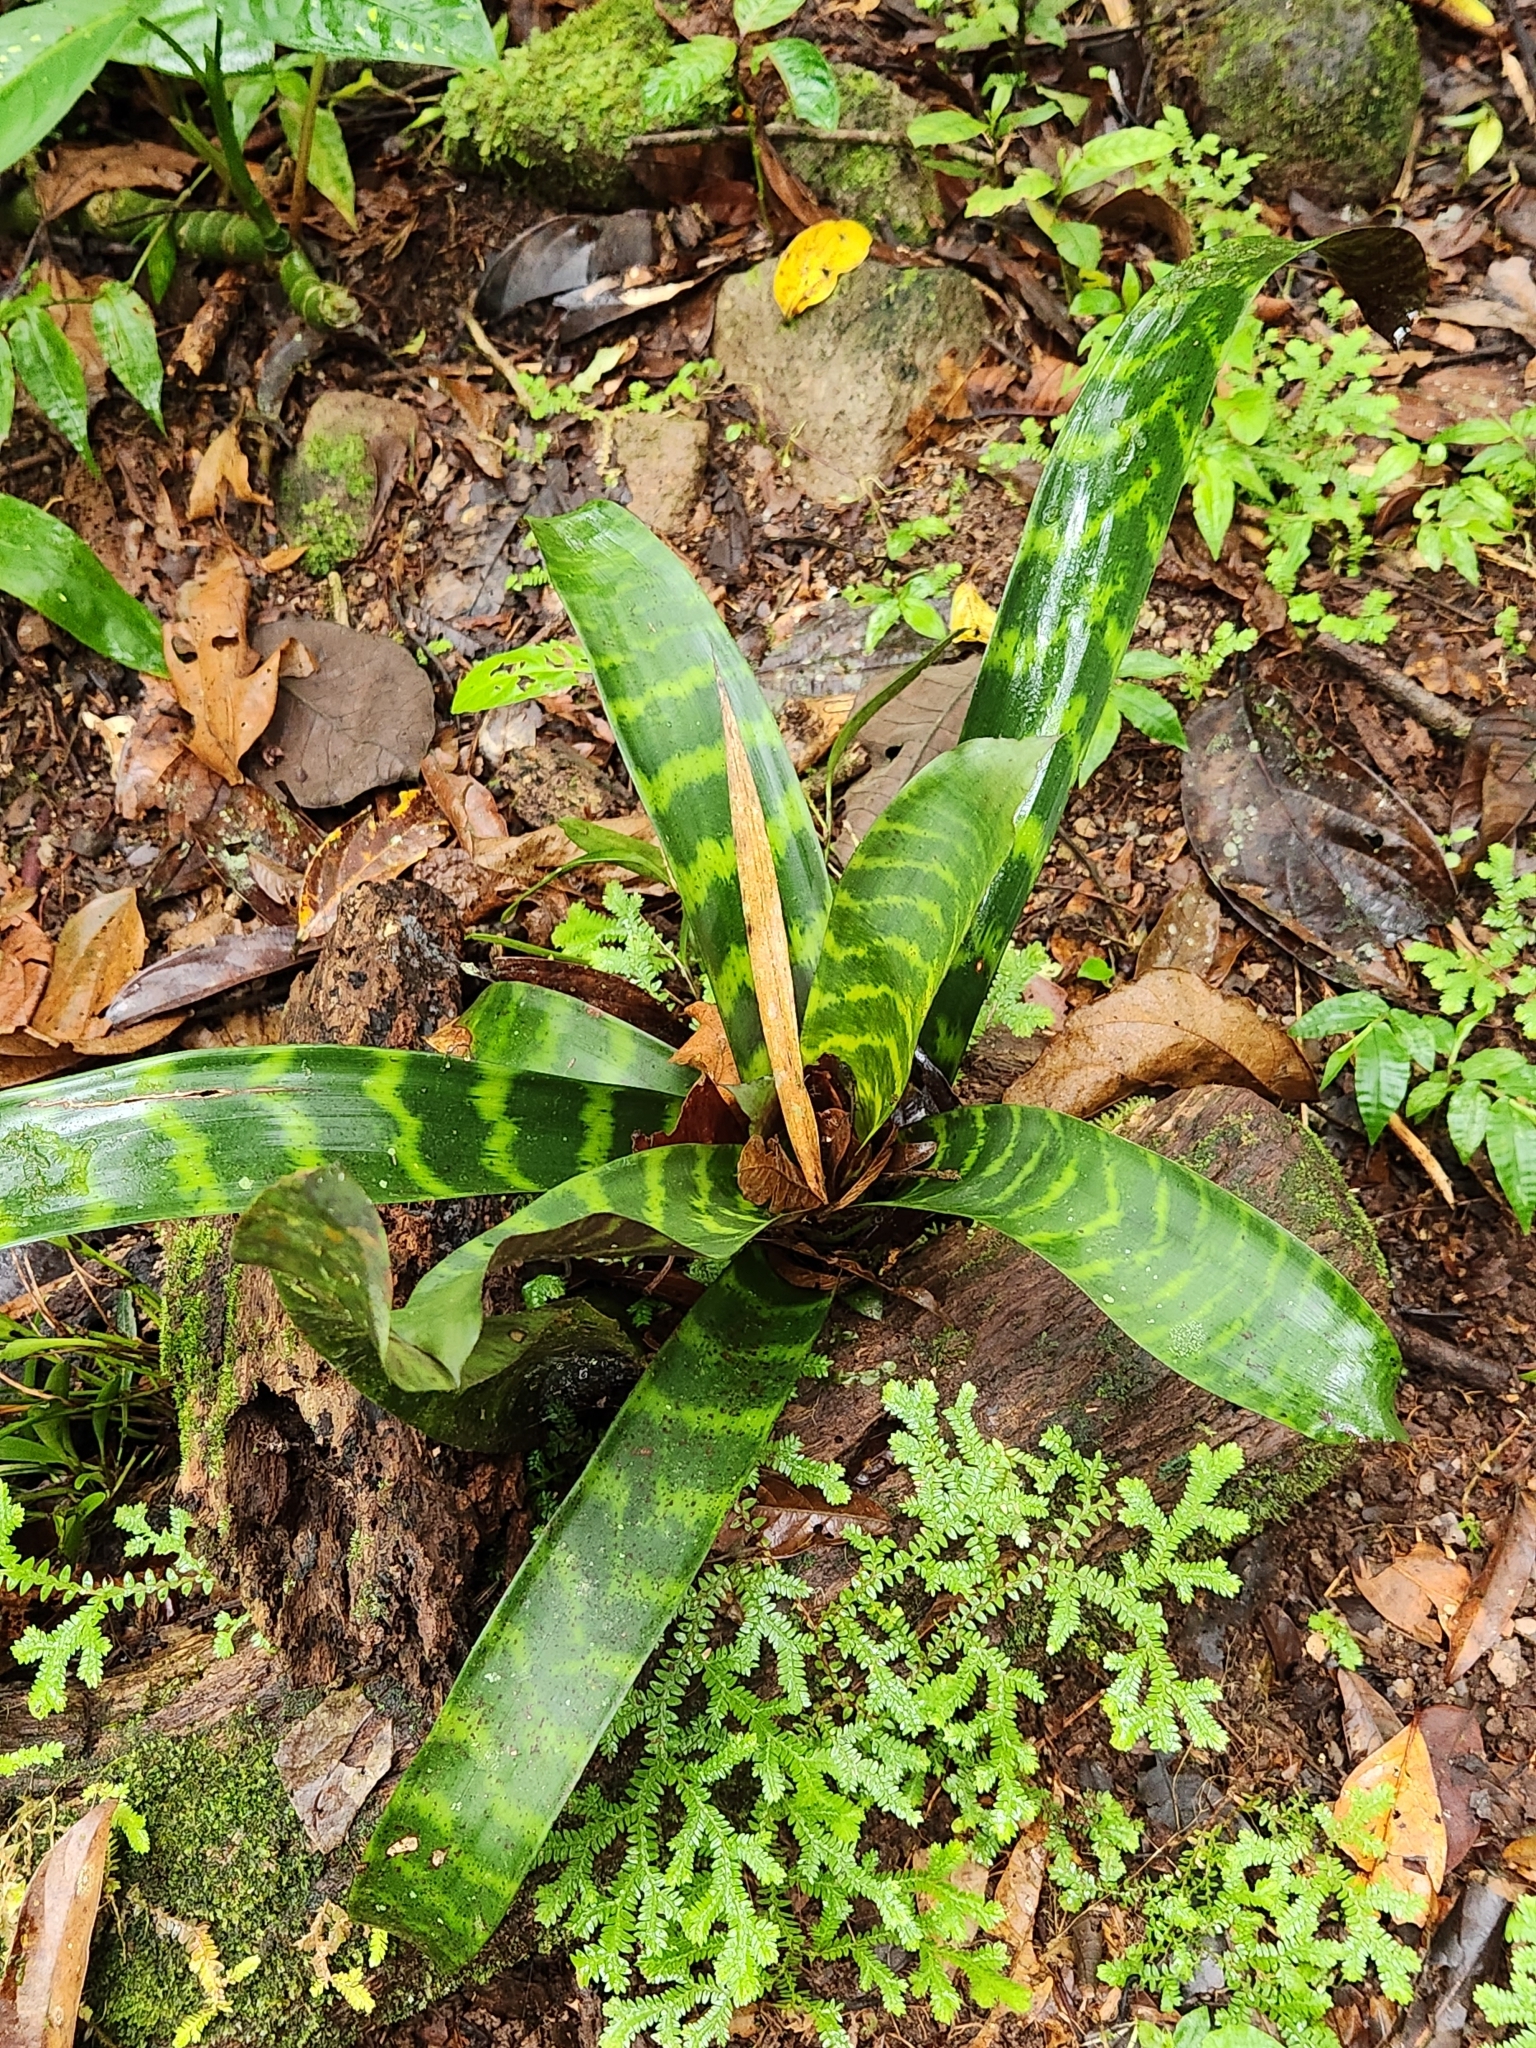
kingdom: Plantae
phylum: Tracheophyta
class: Liliopsida
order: Poales
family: Bromeliaceae
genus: Guzmania
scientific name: Guzmania musaica
